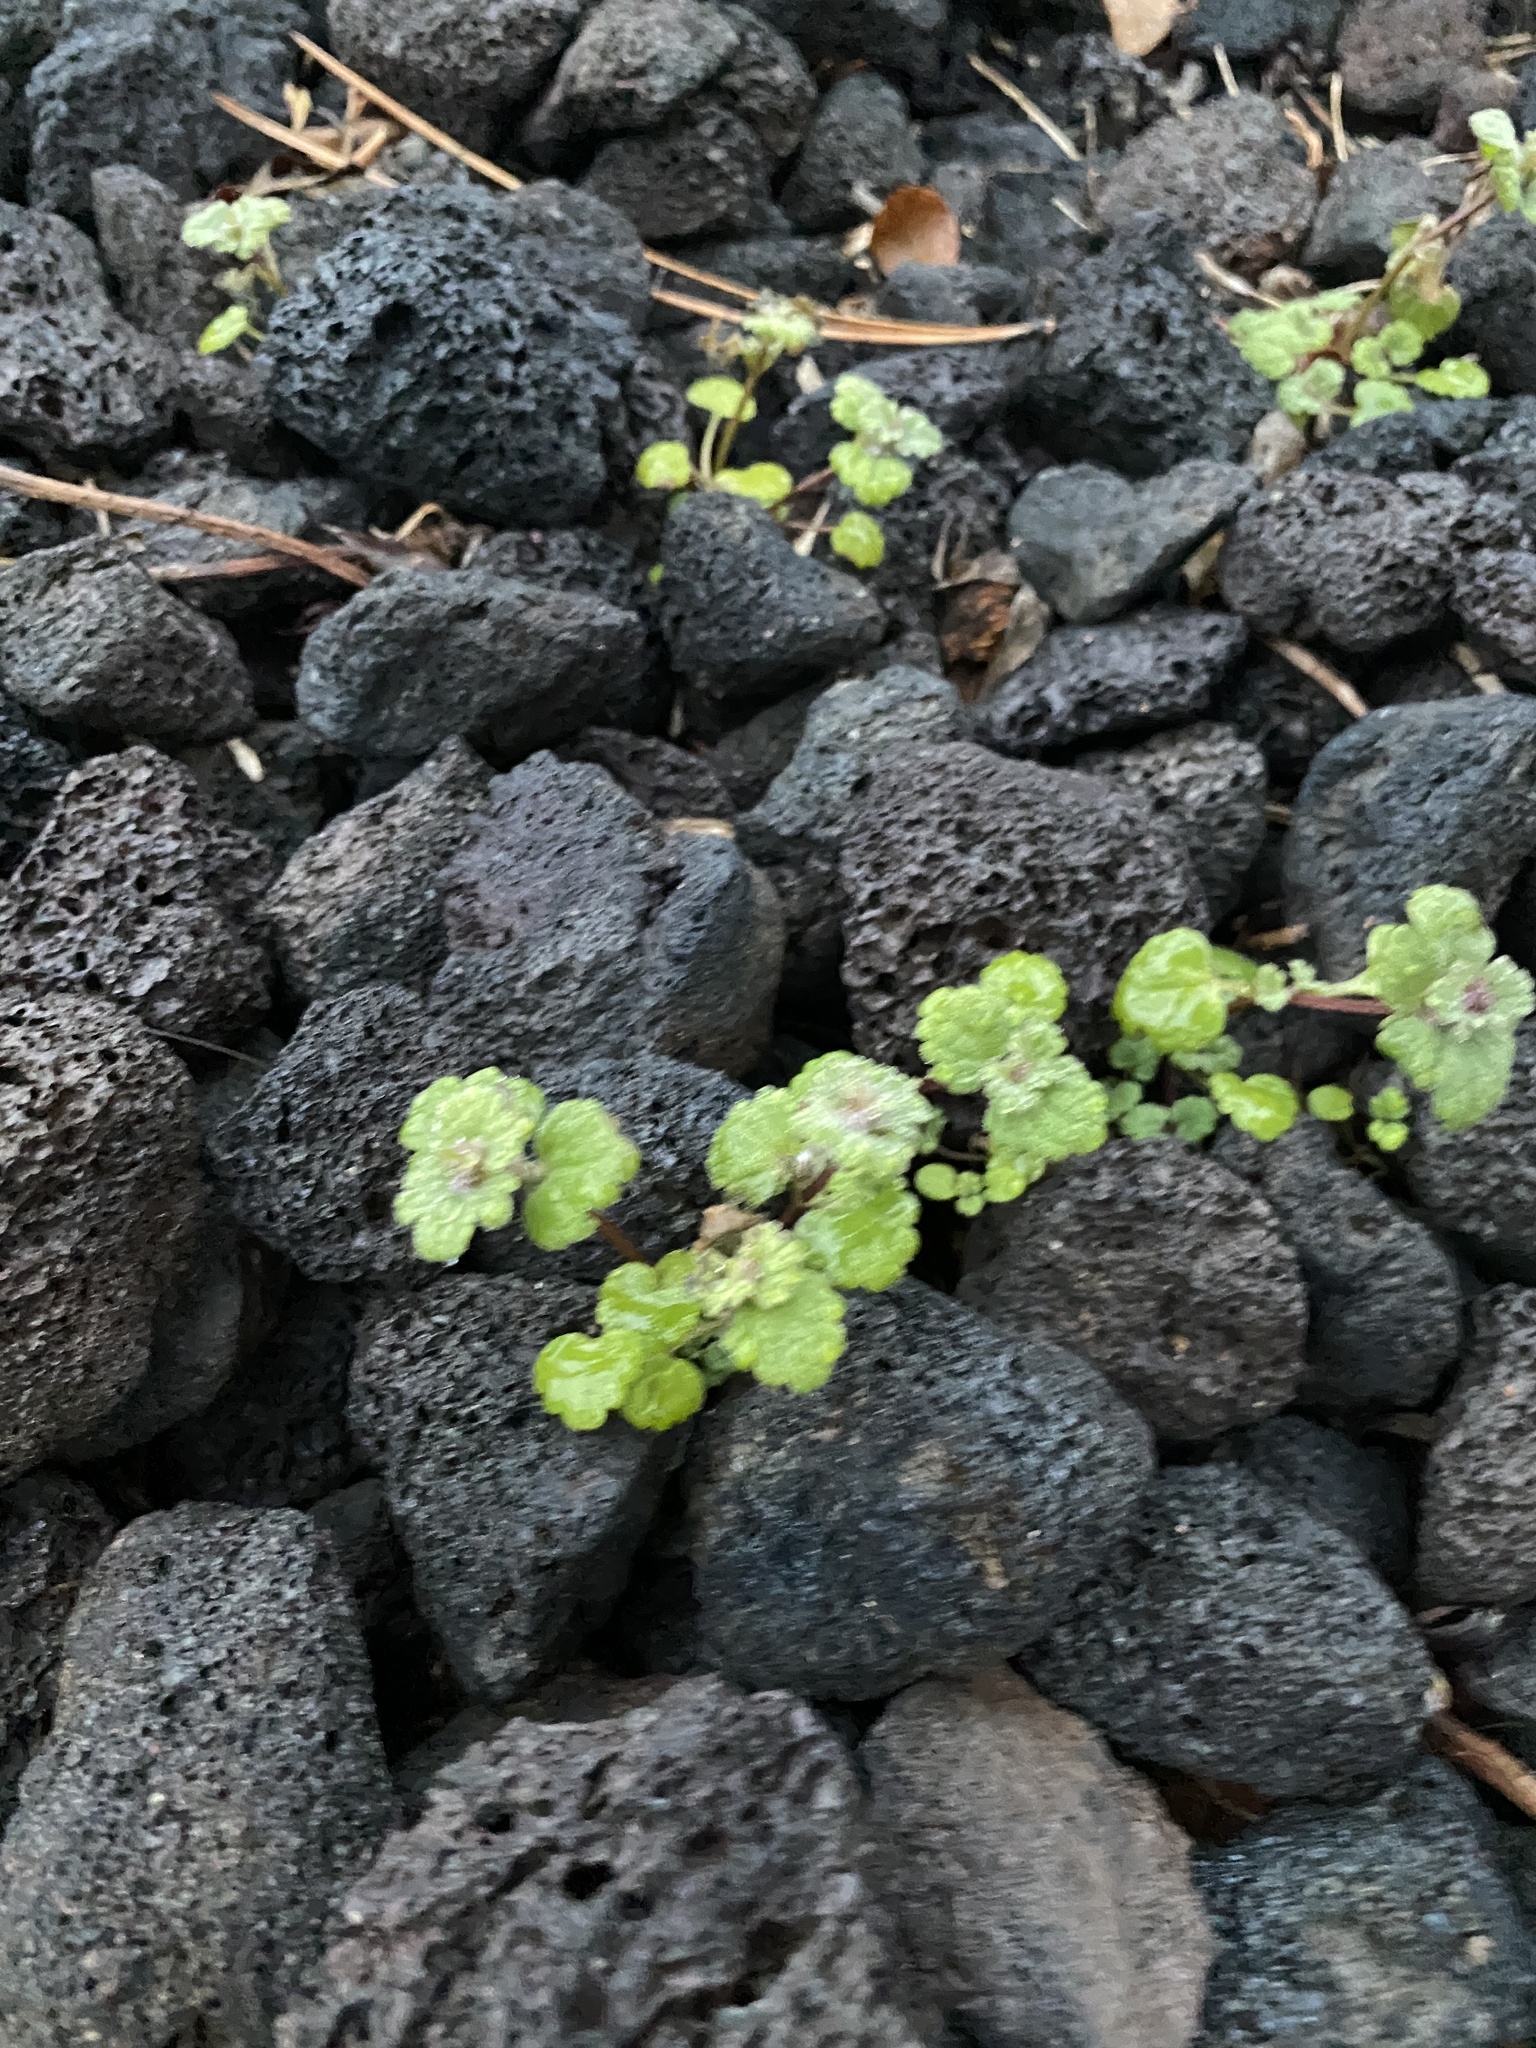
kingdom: Plantae
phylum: Tracheophyta
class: Magnoliopsida
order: Lamiales
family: Lamiaceae
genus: Lamium
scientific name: Lamium amplexicaule
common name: Henbit dead-nettle
